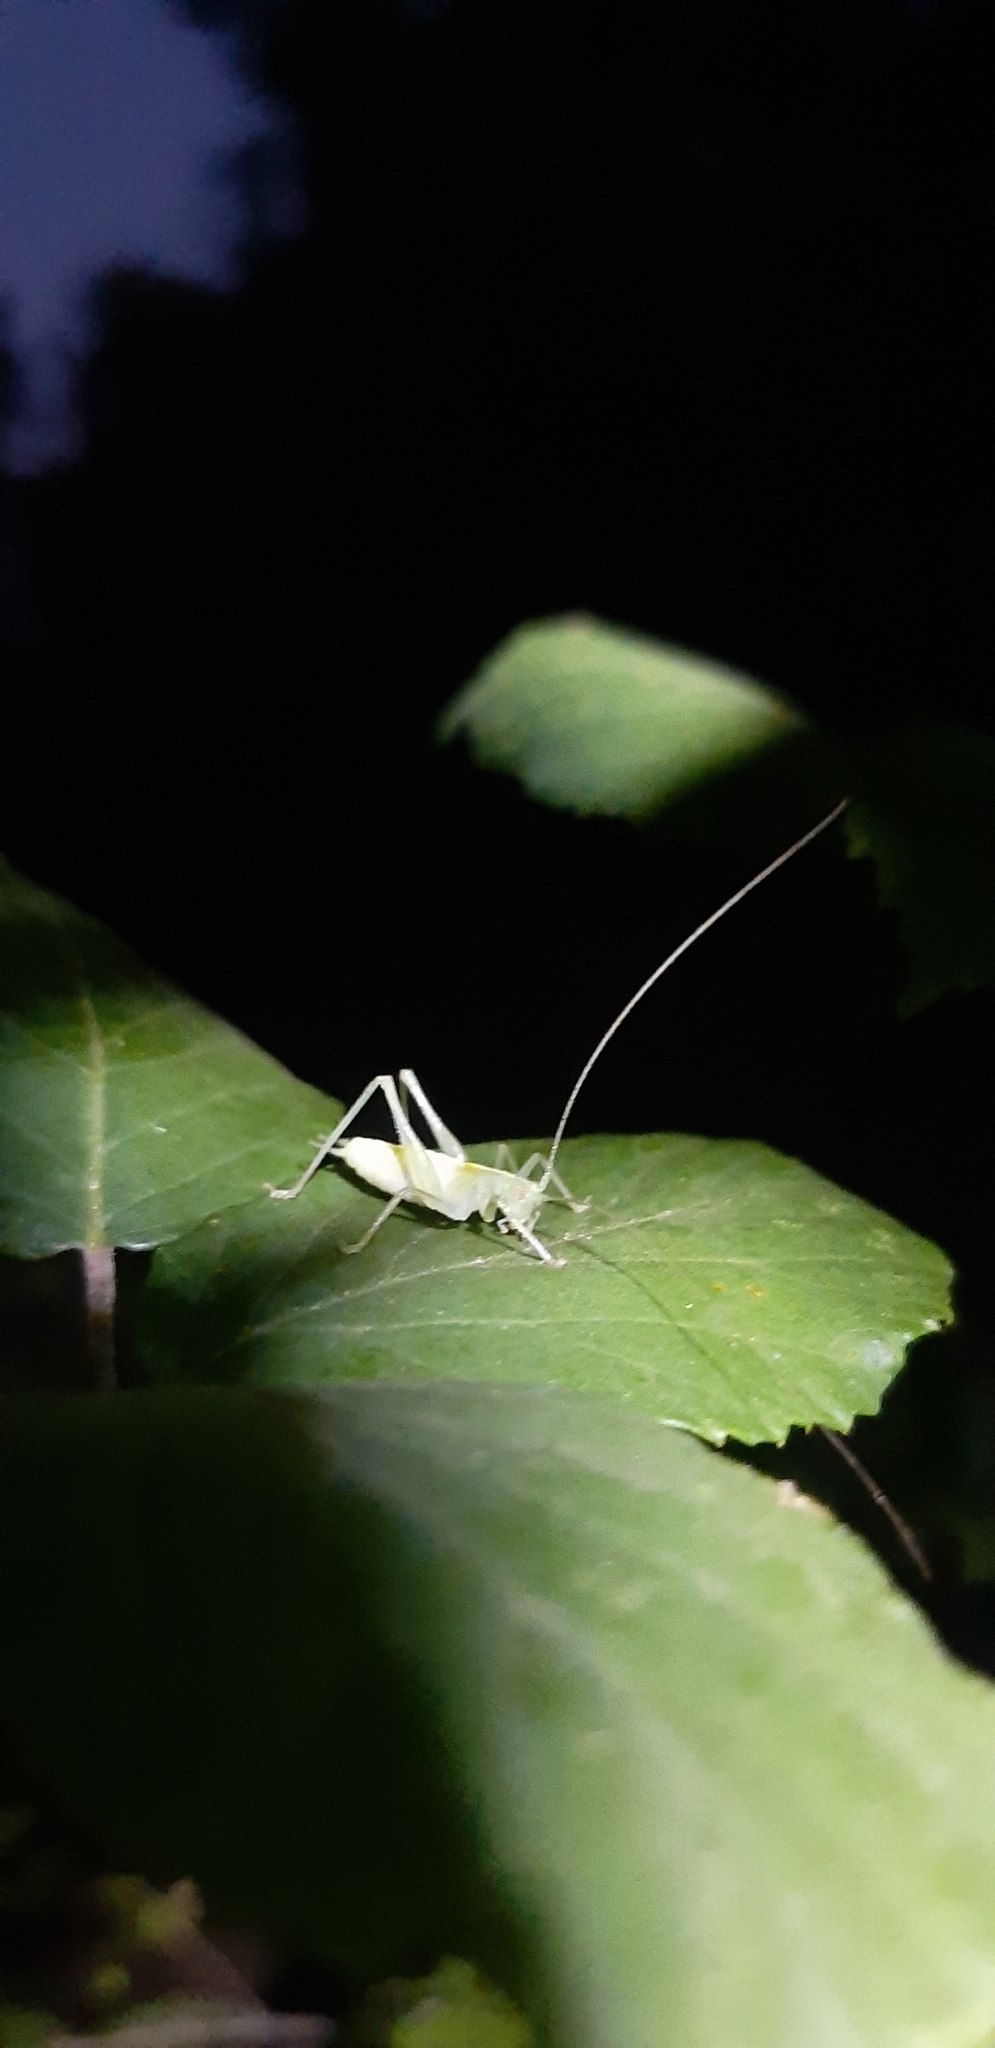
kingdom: Animalia
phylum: Arthropoda
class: Insecta
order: Orthoptera
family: Tettigoniidae
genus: Meconema
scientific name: Meconema meridionale
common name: Southern oak bush-cricket
